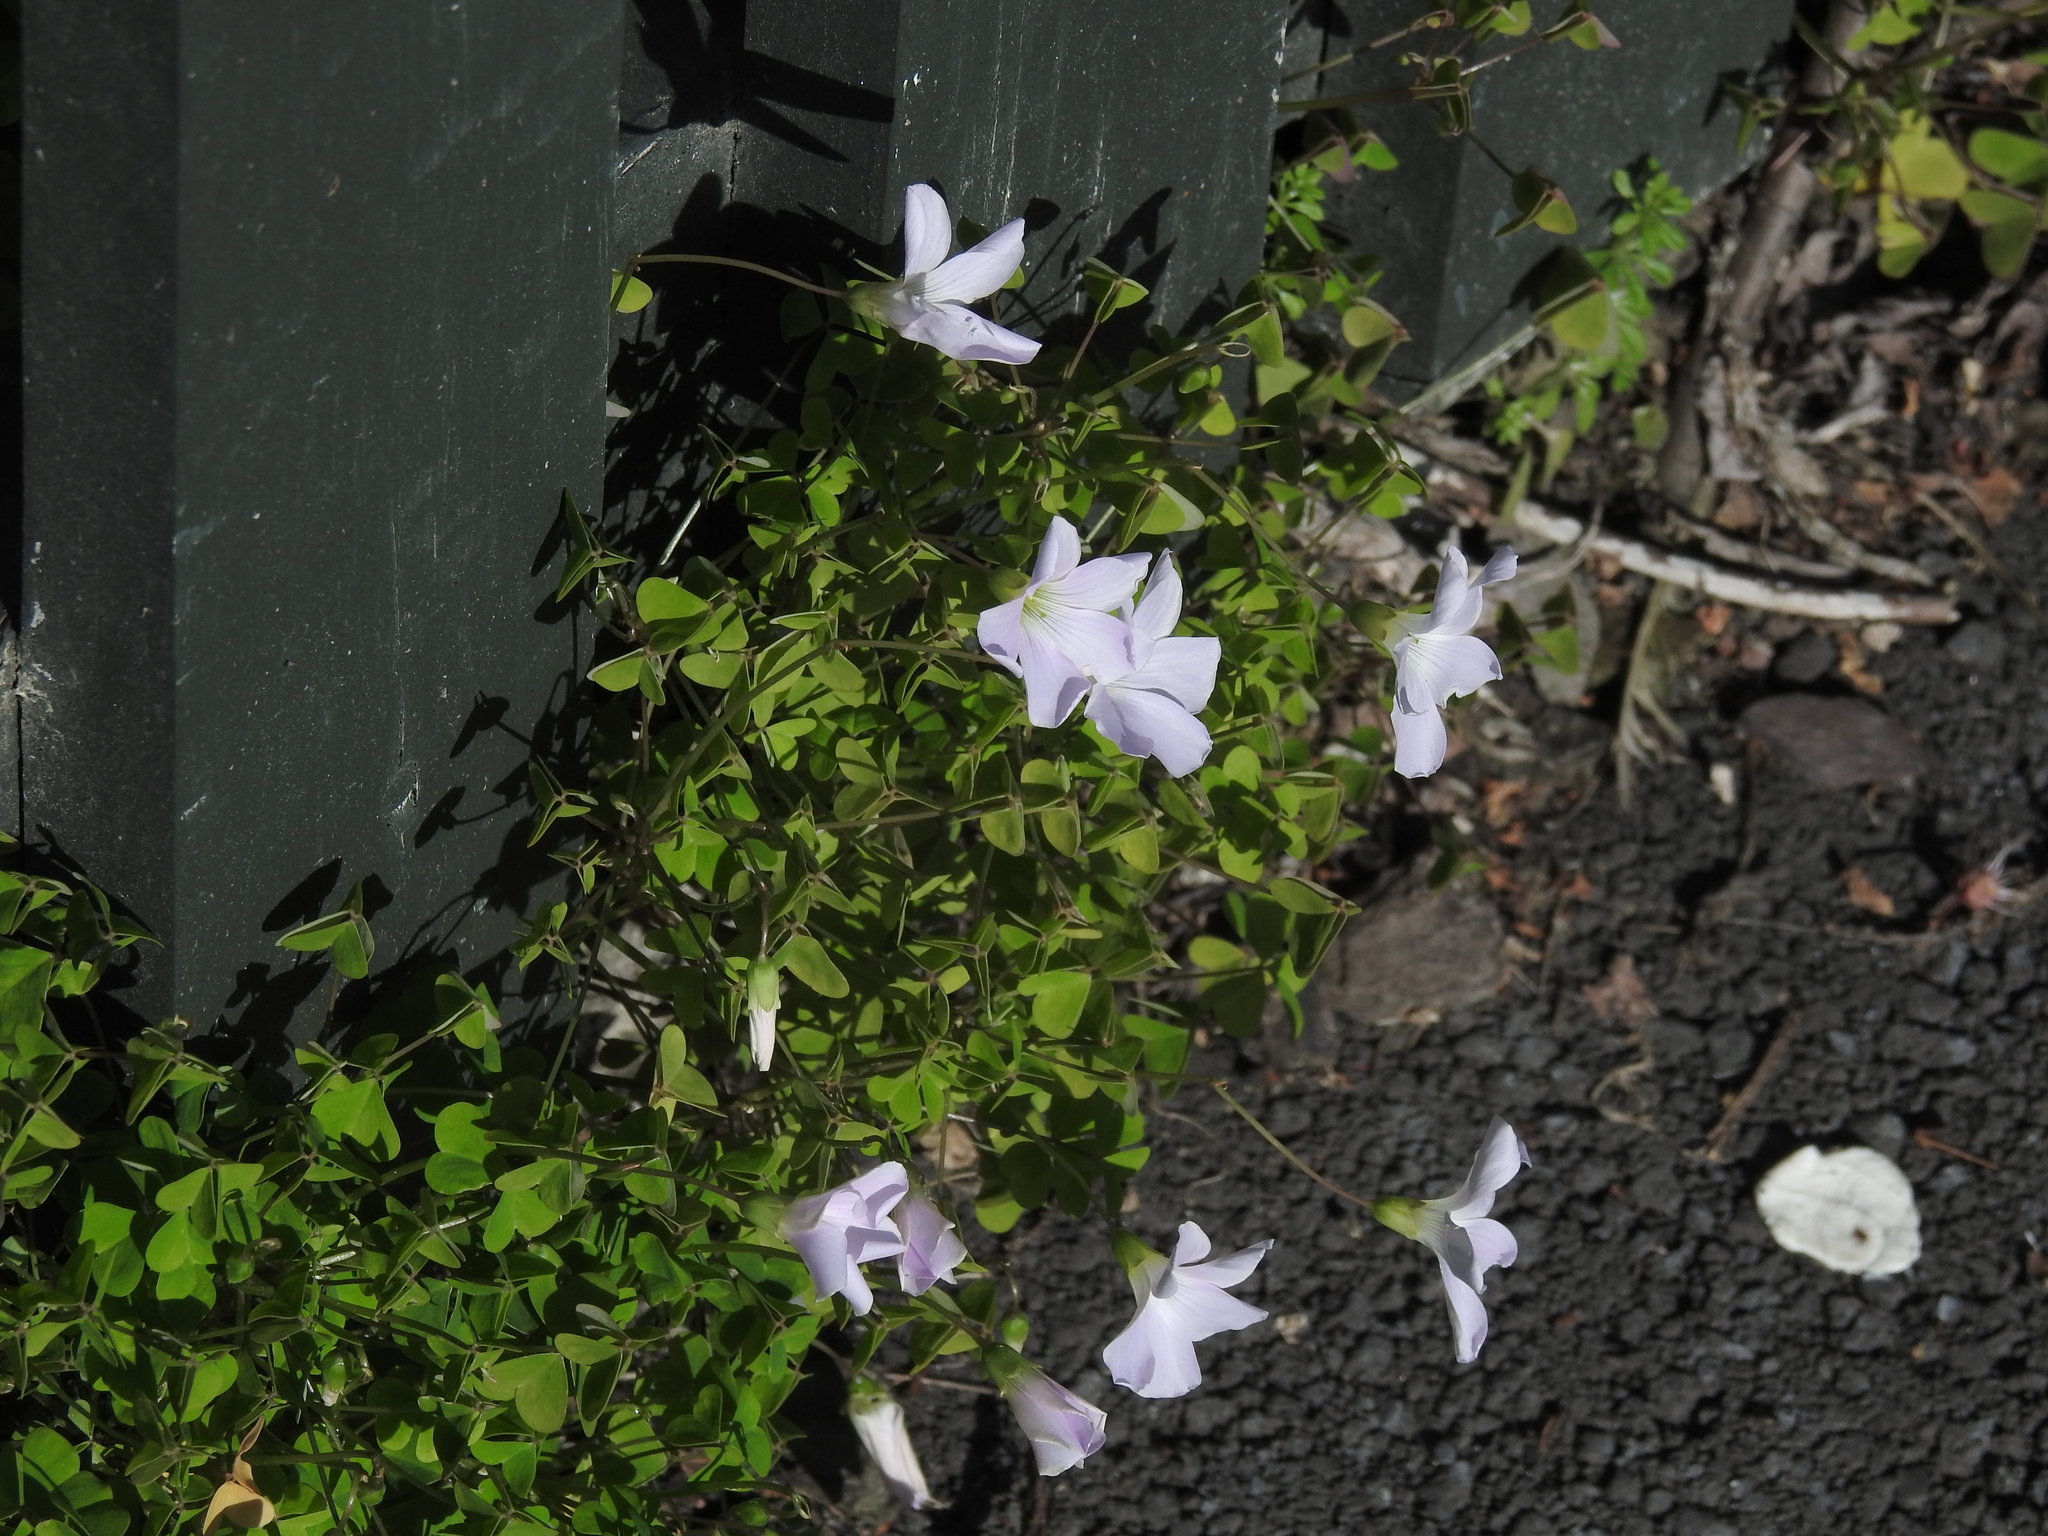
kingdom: Plantae
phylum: Tracheophyta
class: Magnoliopsida
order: Oxalidales
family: Oxalidaceae
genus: Oxalis
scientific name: Oxalis incarnata
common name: Pale pink-sorrel
